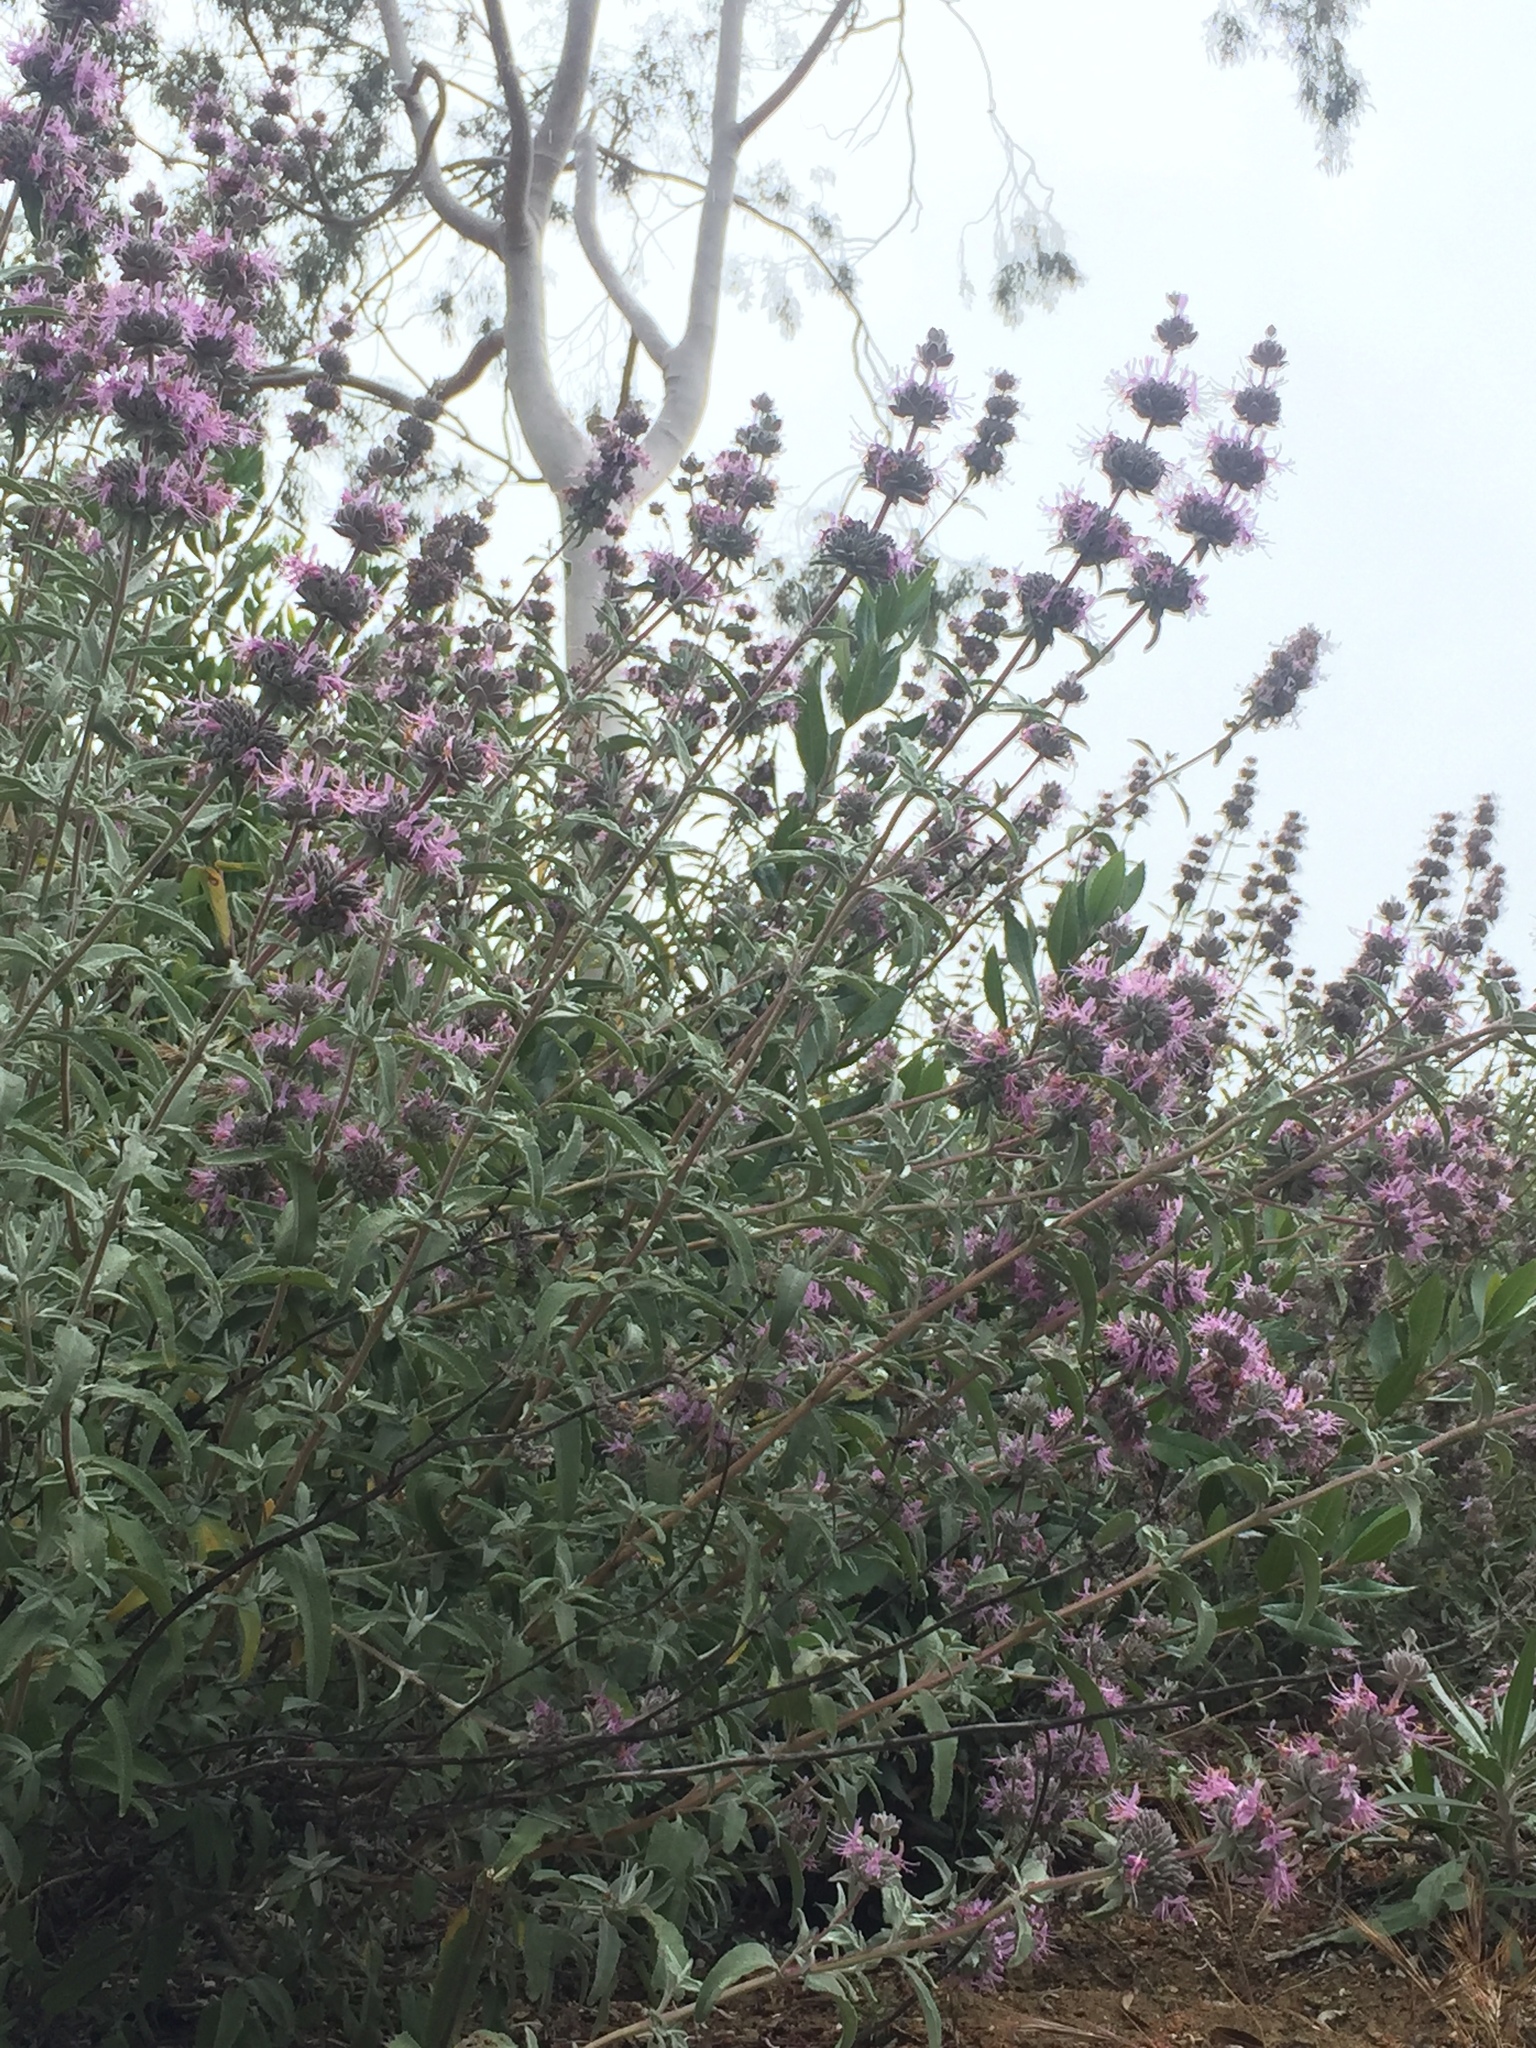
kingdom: Plantae
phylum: Tracheophyta
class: Magnoliopsida
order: Lamiales
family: Lamiaceae
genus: Salvia
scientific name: Salvia leucophylla
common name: Purple sage
